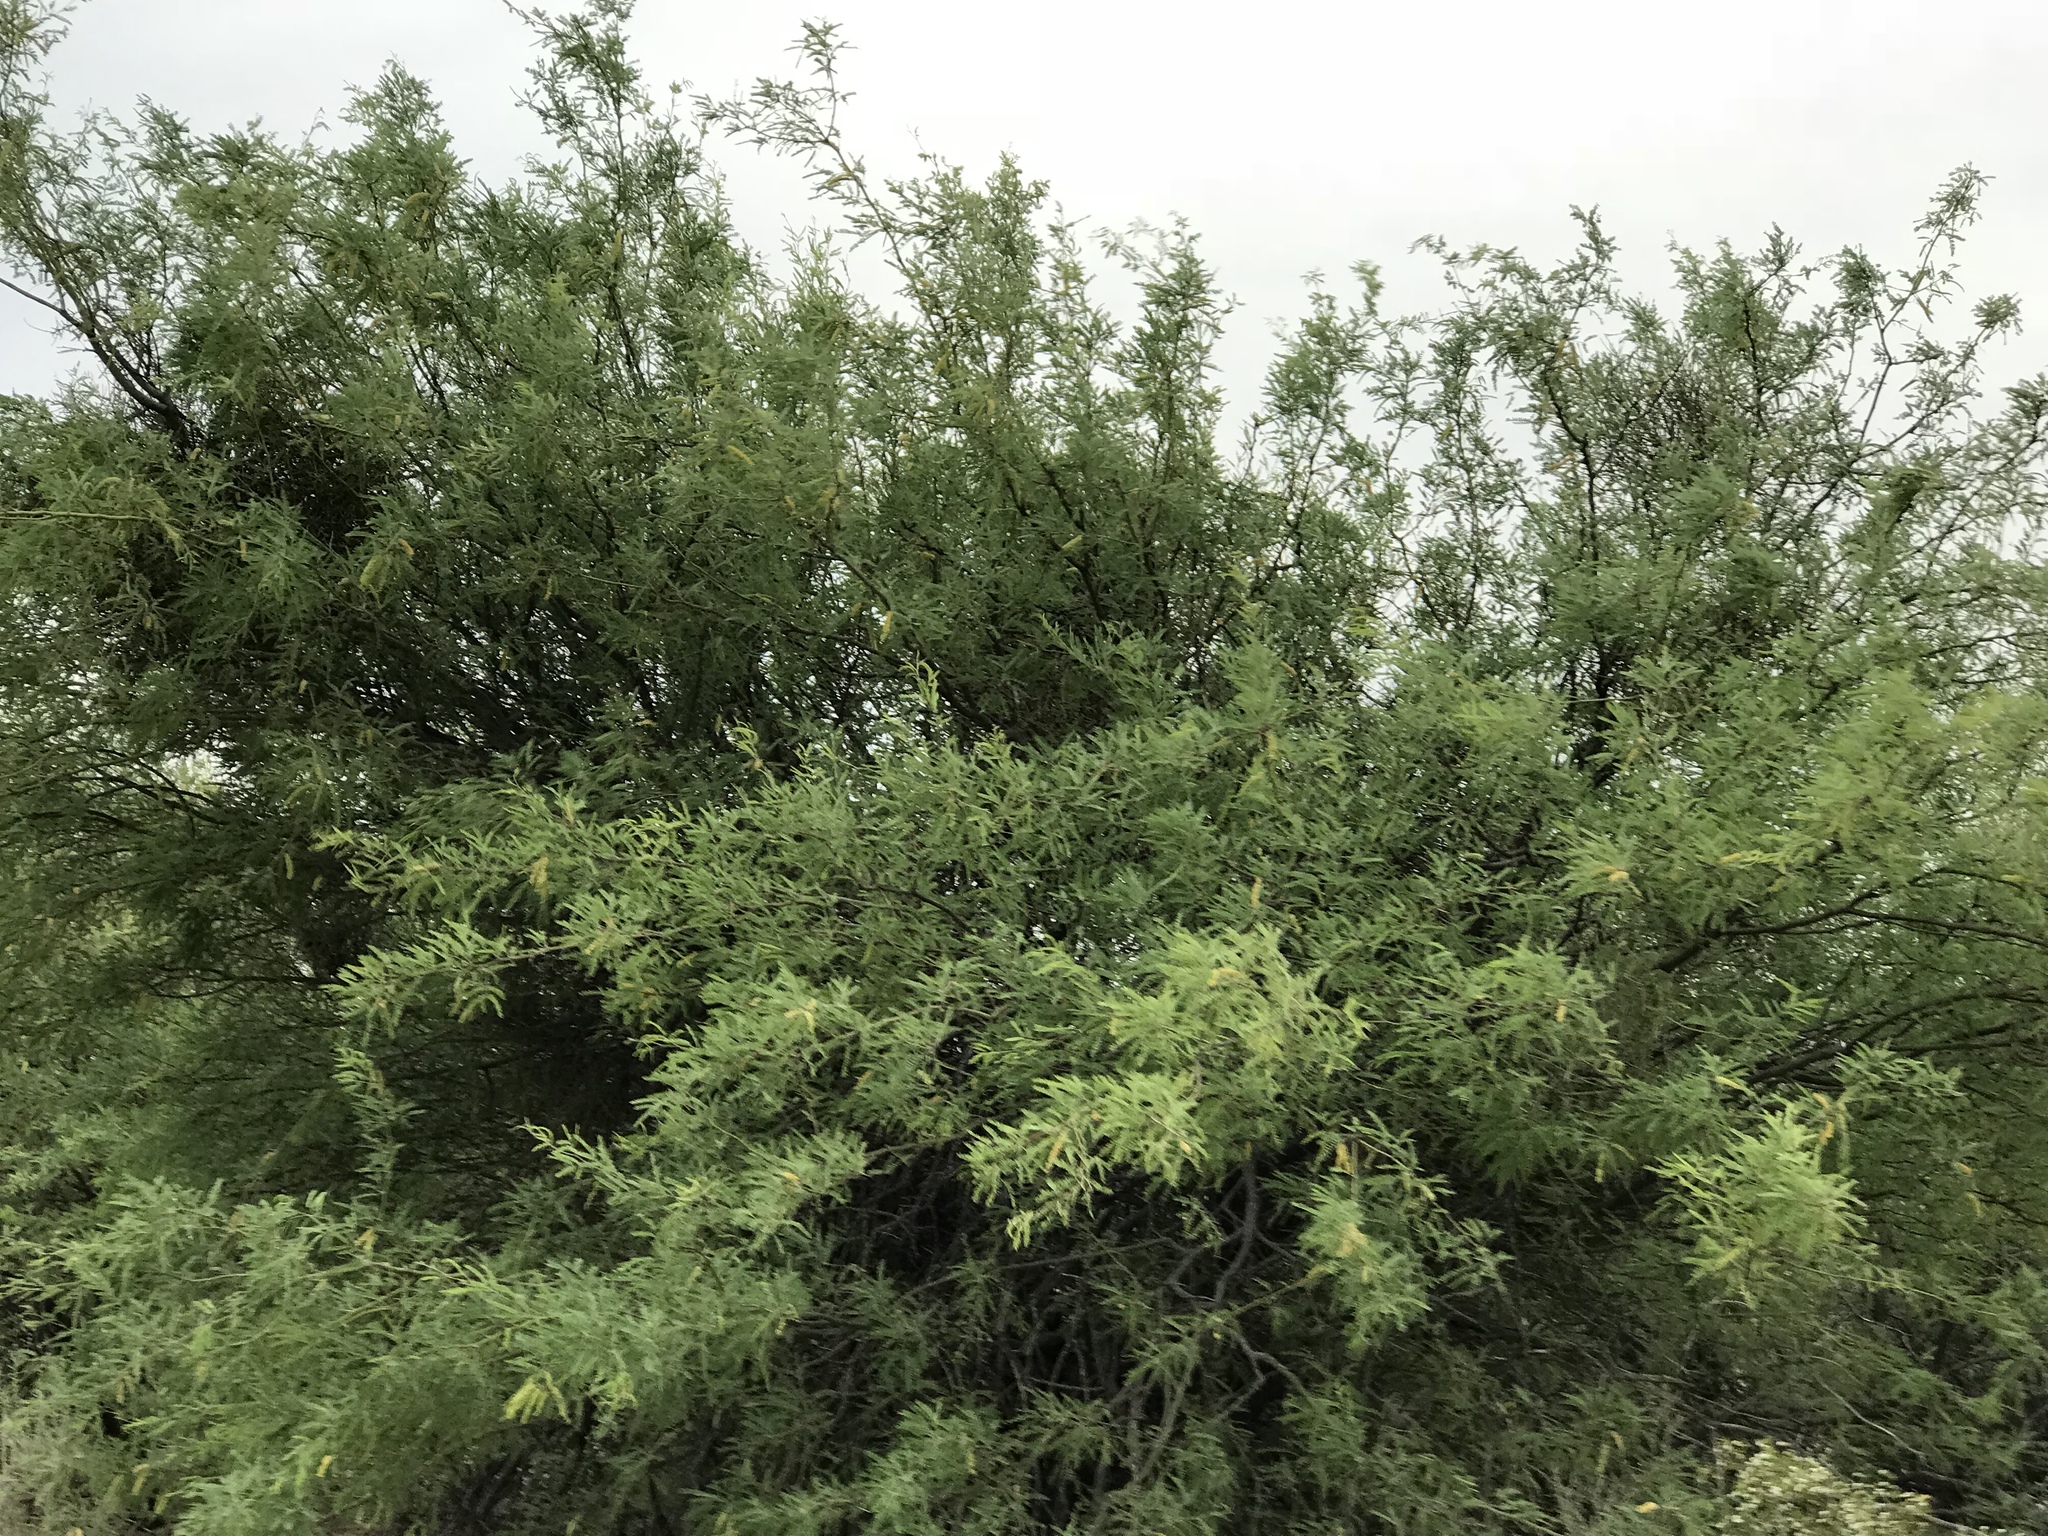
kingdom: Plantae
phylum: Tracheophyta
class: Magnoliopsida
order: Fabales
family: Fabaceae
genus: Prosopis
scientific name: Prosopis velutina
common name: Velvet mesquite
